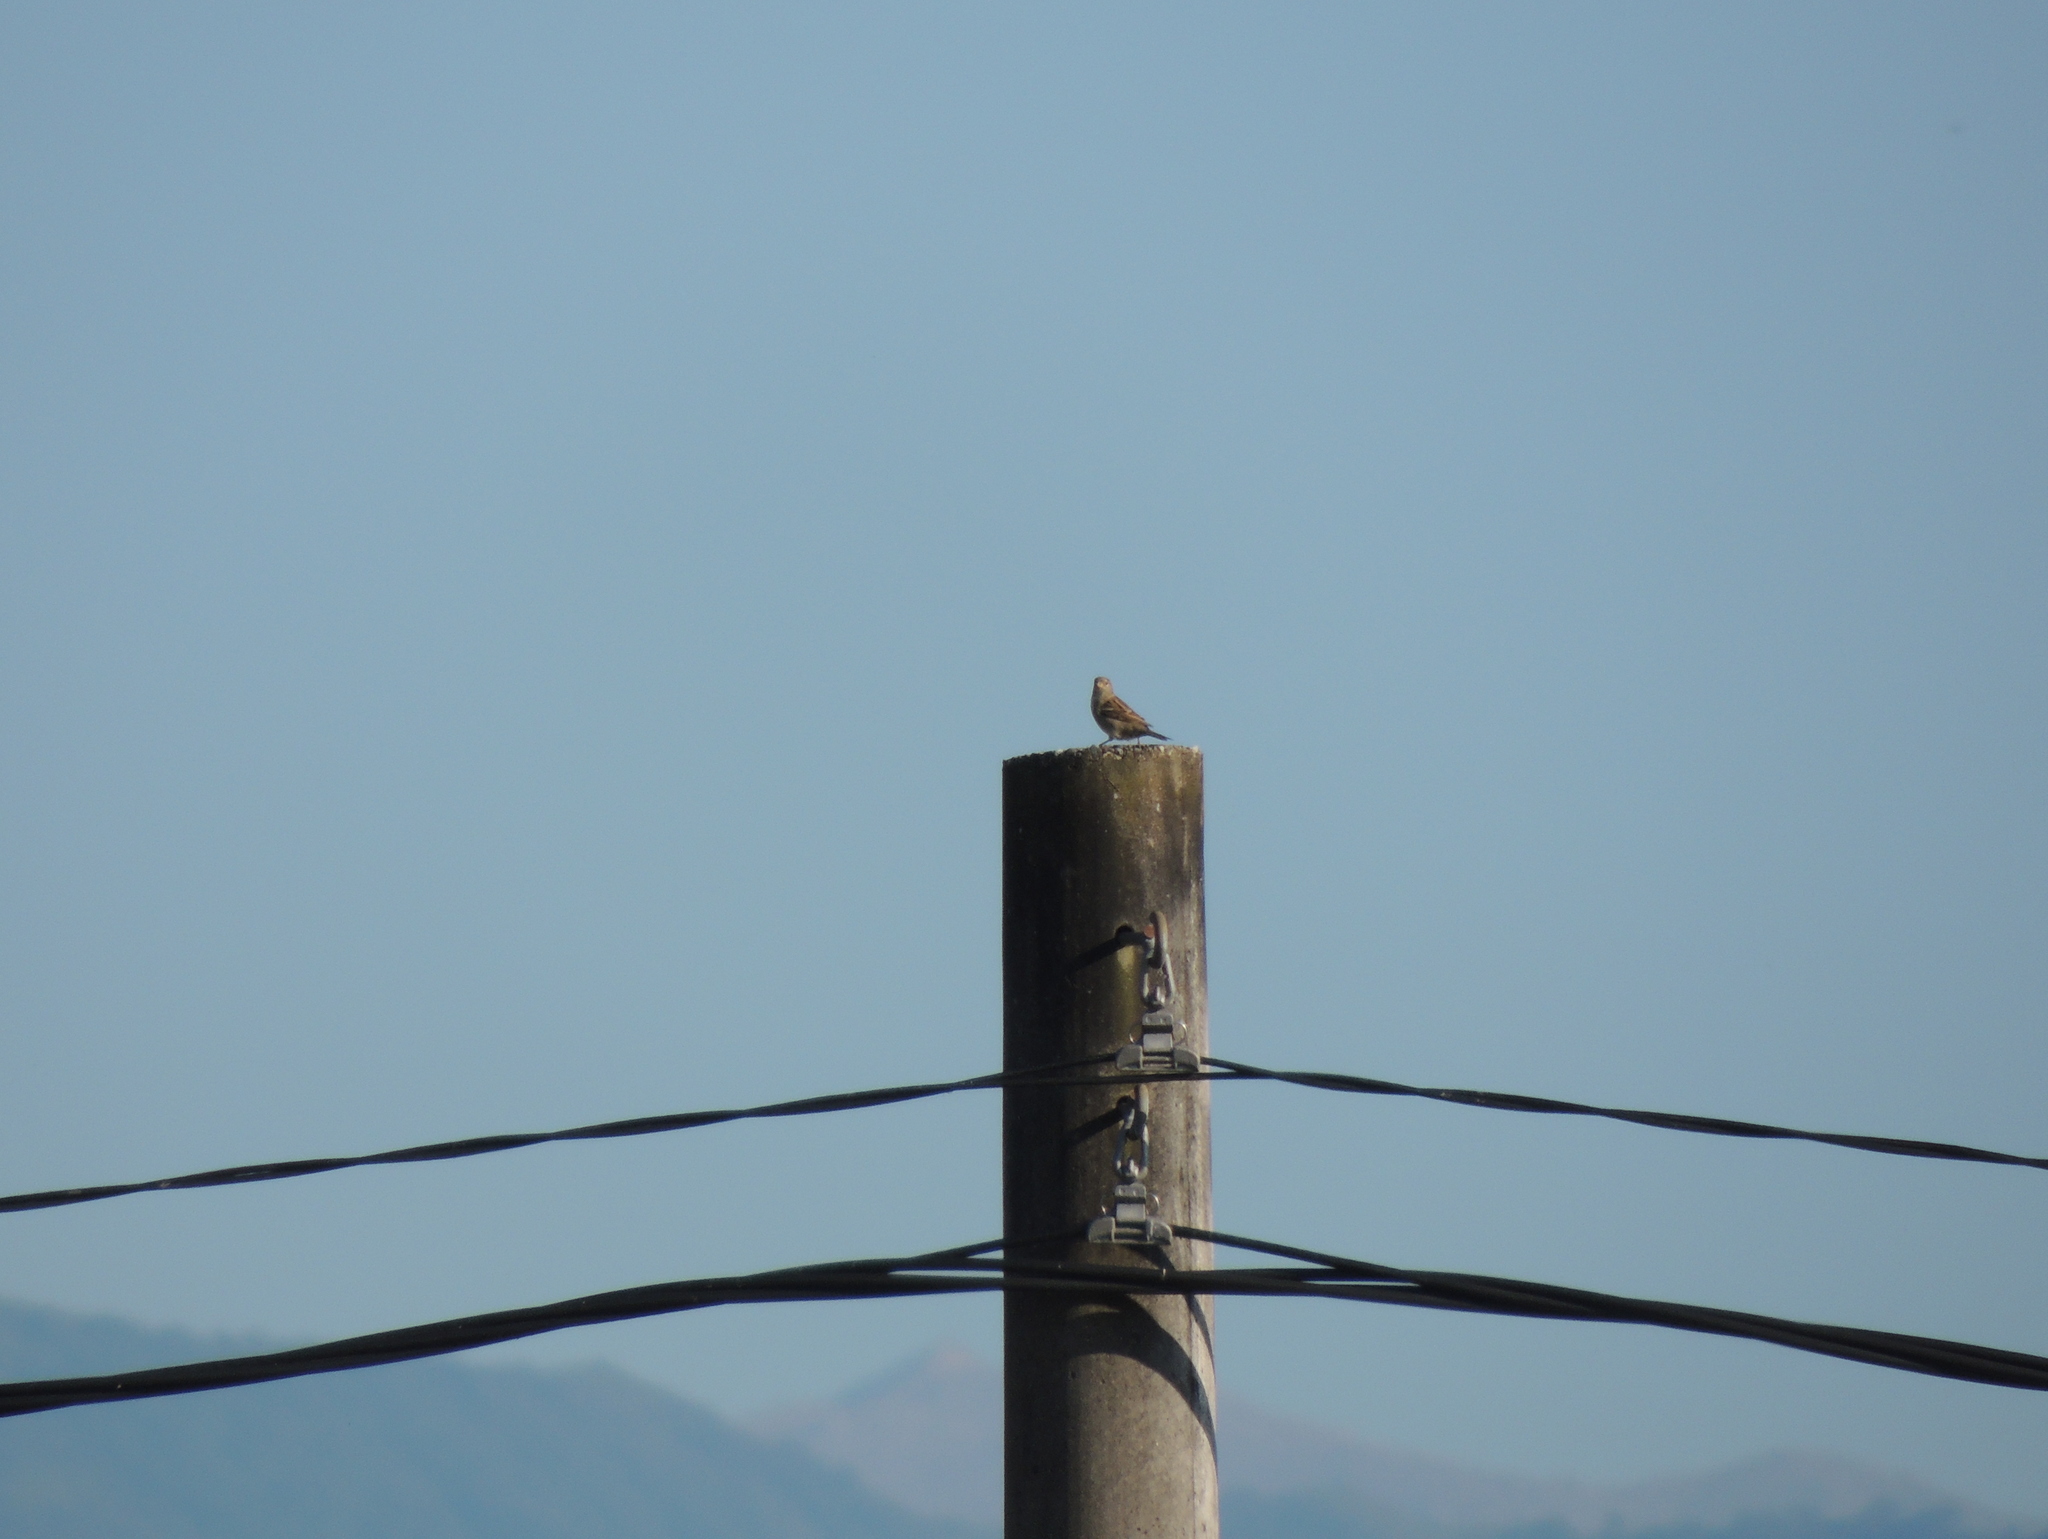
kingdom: Animalia
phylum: Chordata
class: Aves
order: Passeriformes
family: Passeridae
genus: Passer
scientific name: Passer domesticus
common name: House sparrow
